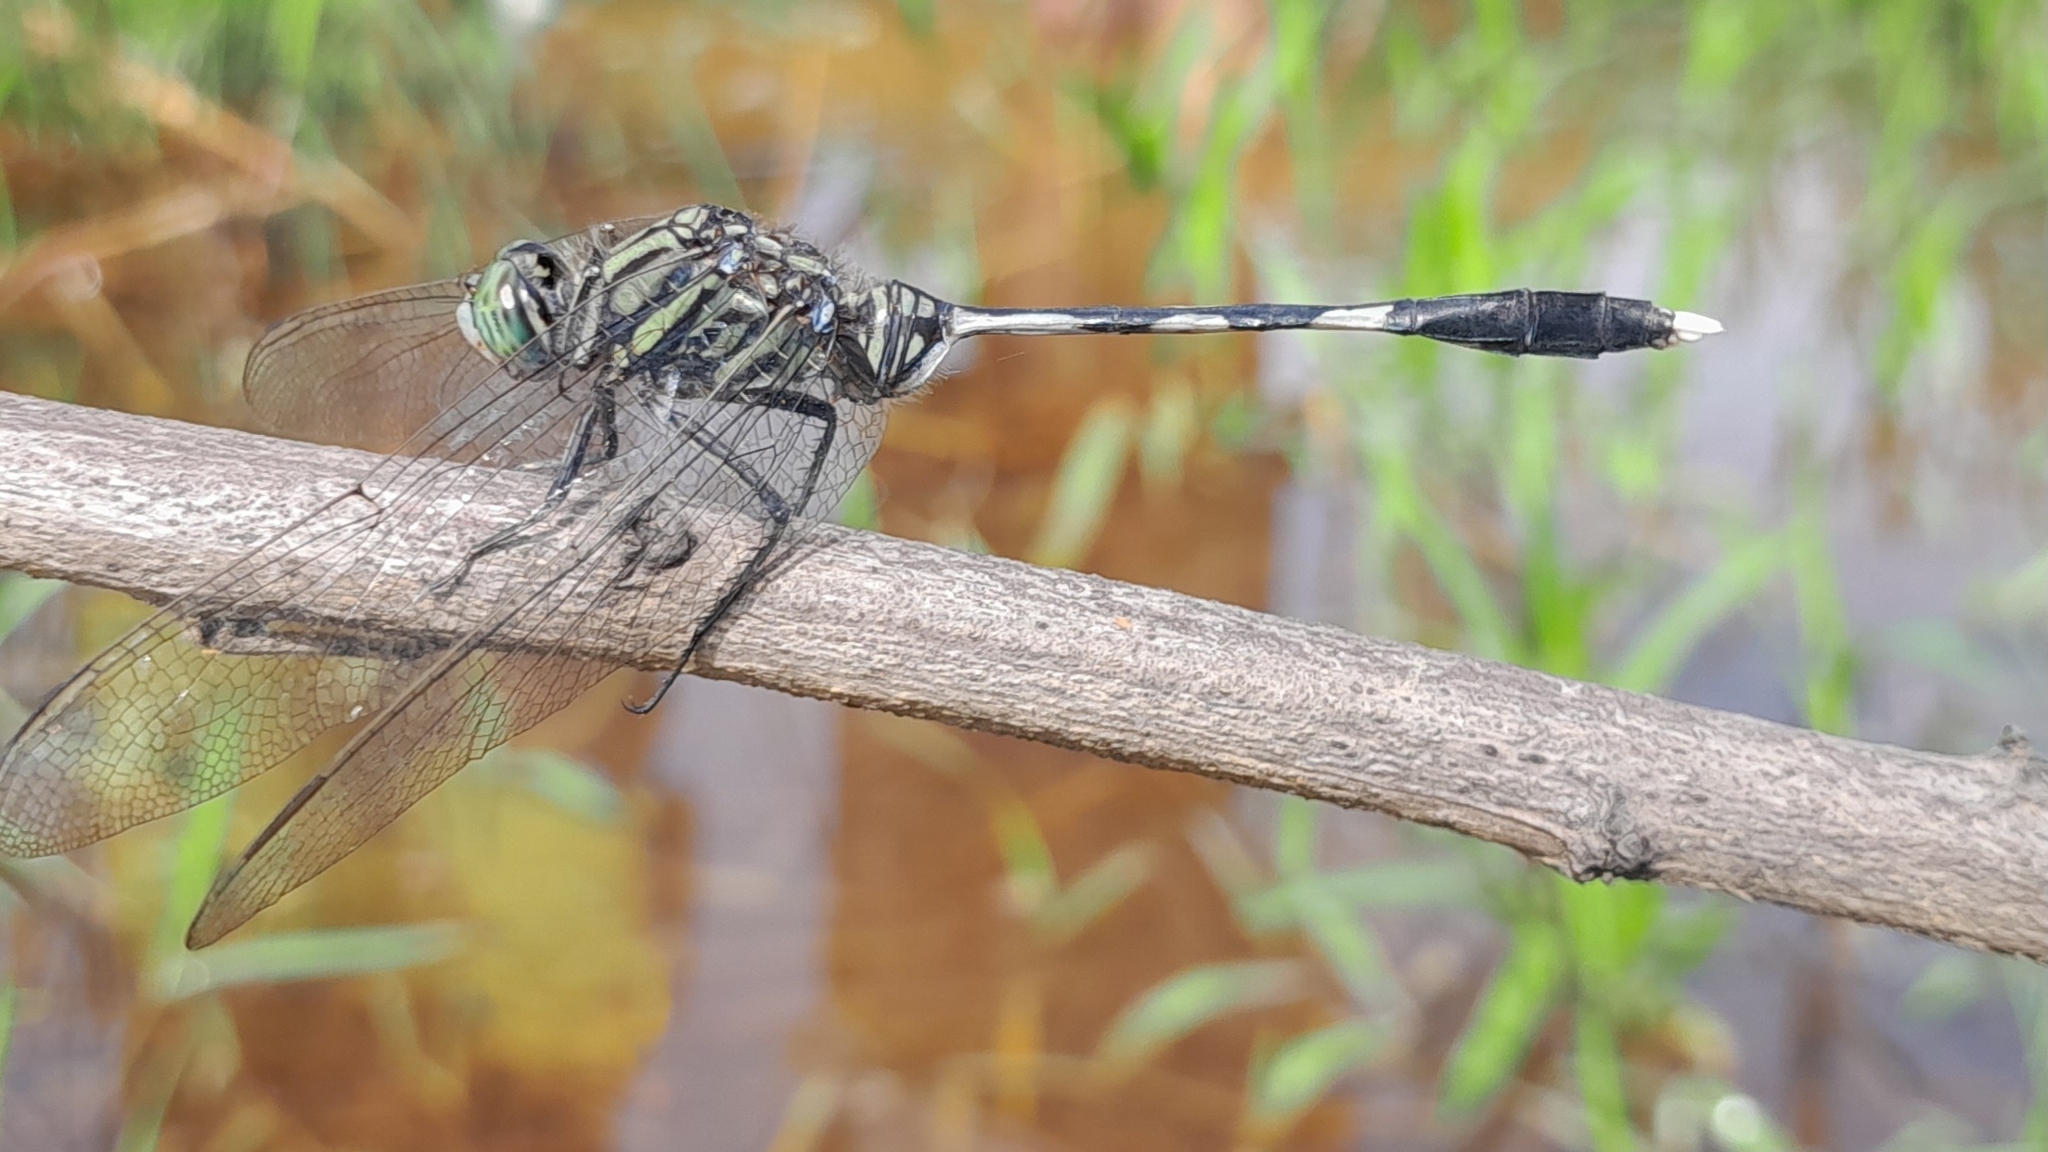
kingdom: Animalia
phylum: Arthropoda
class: Insecta
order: Odonata
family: Libellulidae
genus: Orthetrum
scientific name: Orthetrum sabina
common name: Slender skimmer
